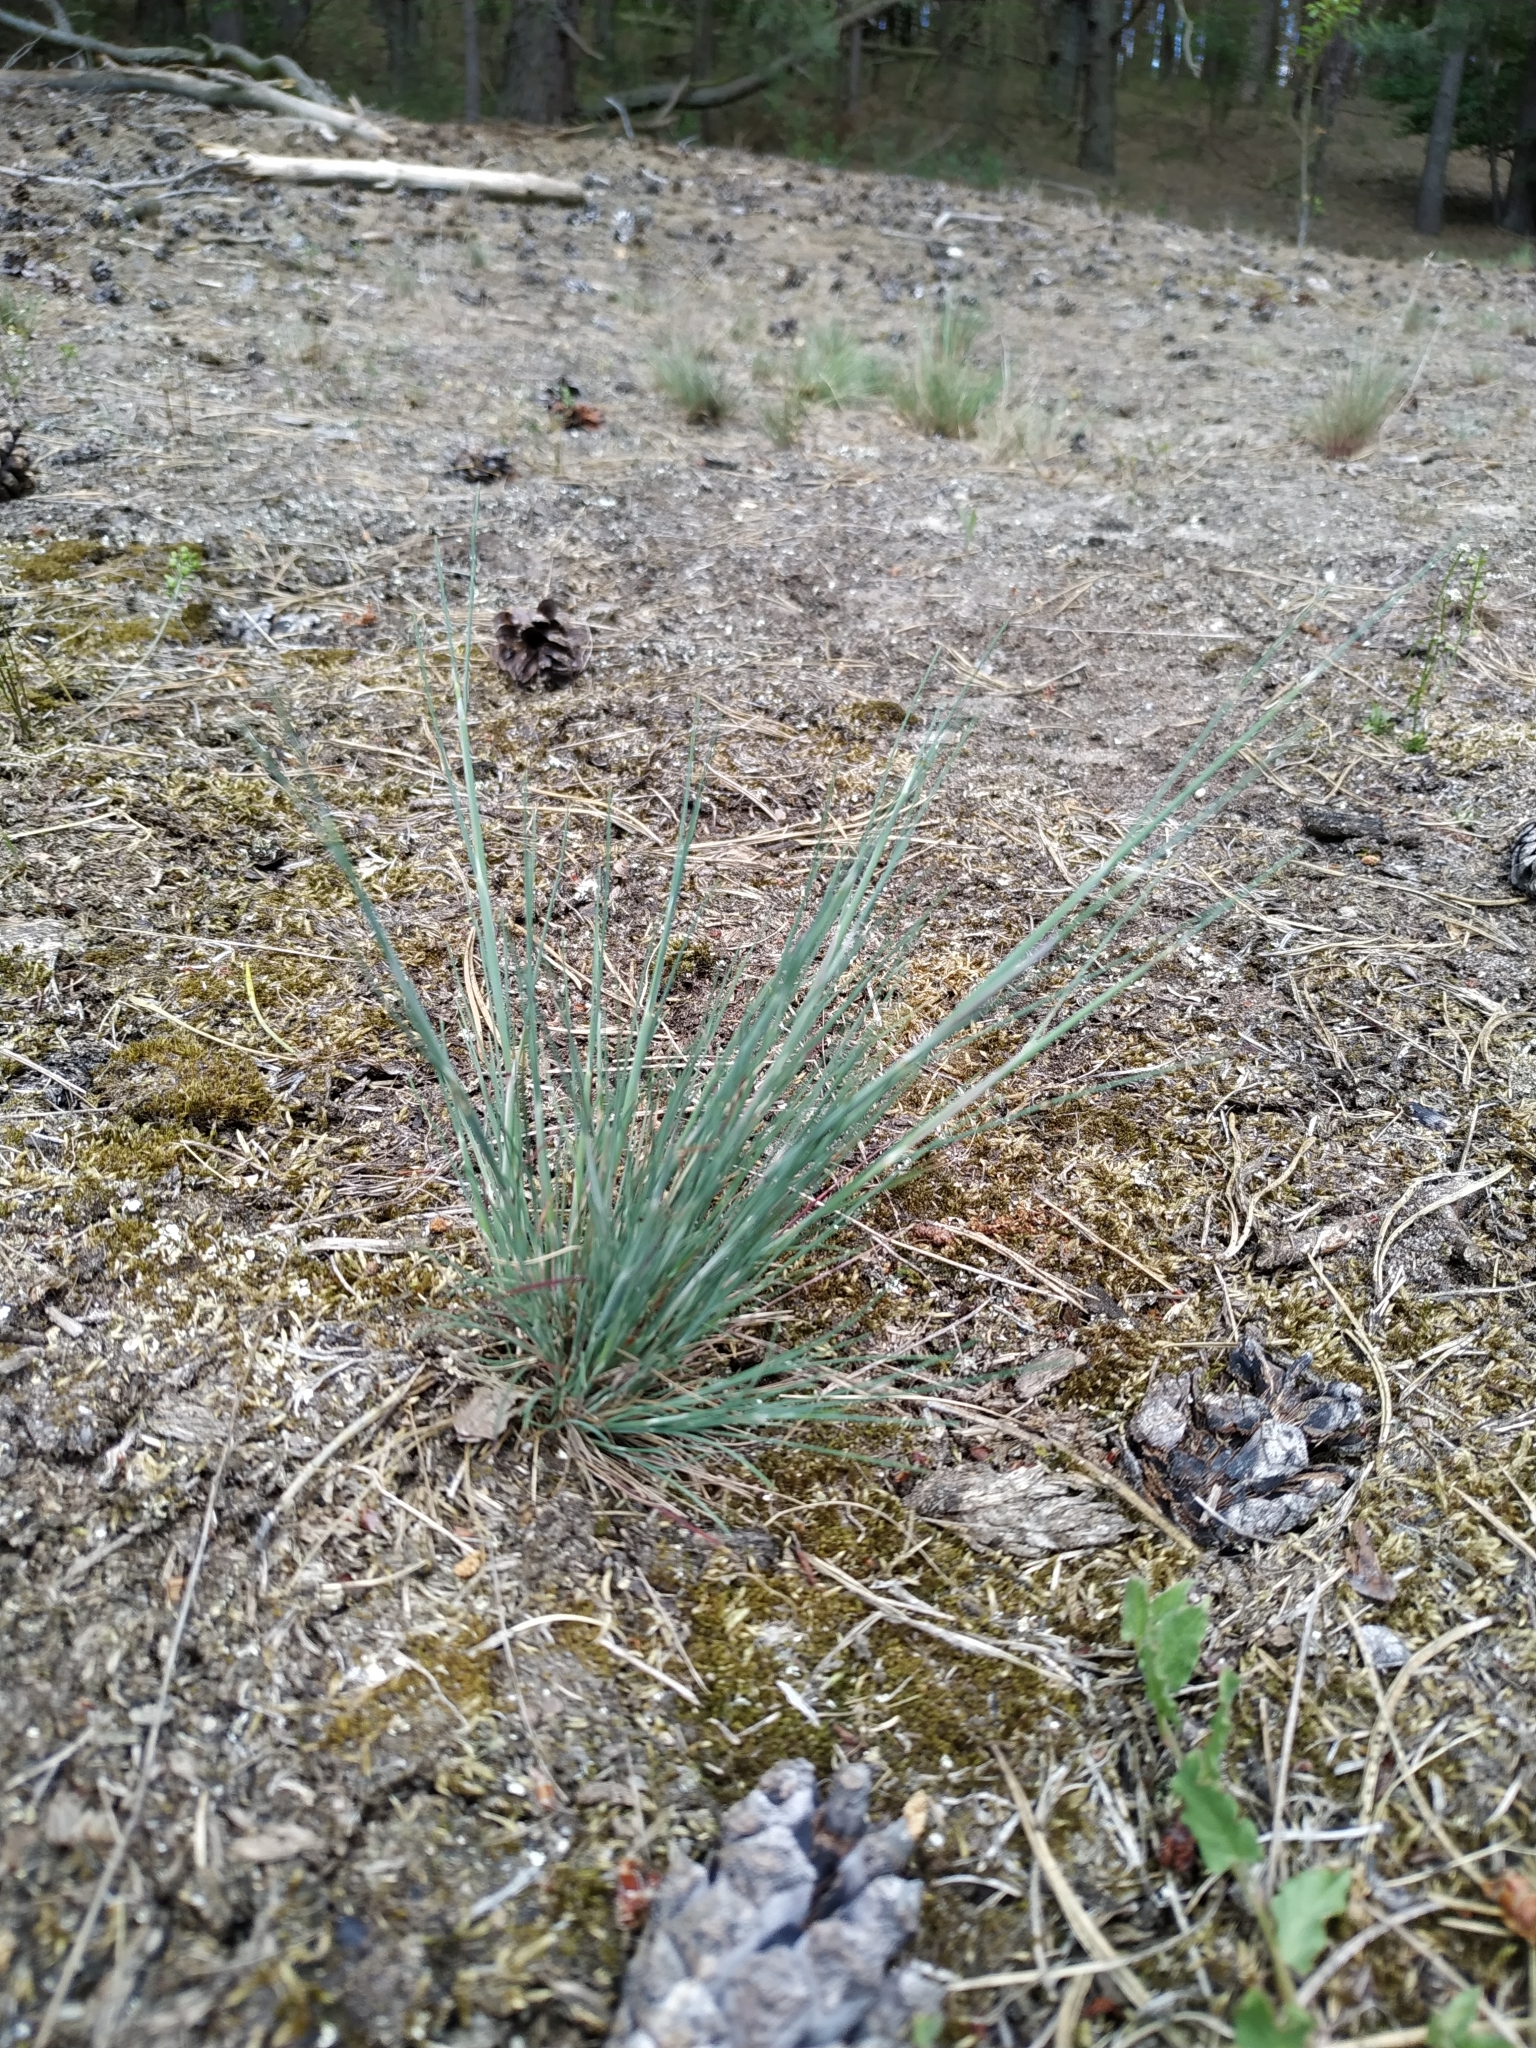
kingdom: Plantae
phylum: Tracheophyta
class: Liliopsida
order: Poales
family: Poaceae
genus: Corynephorus
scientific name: Corynephorus canescens
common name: Grey hair-grass
